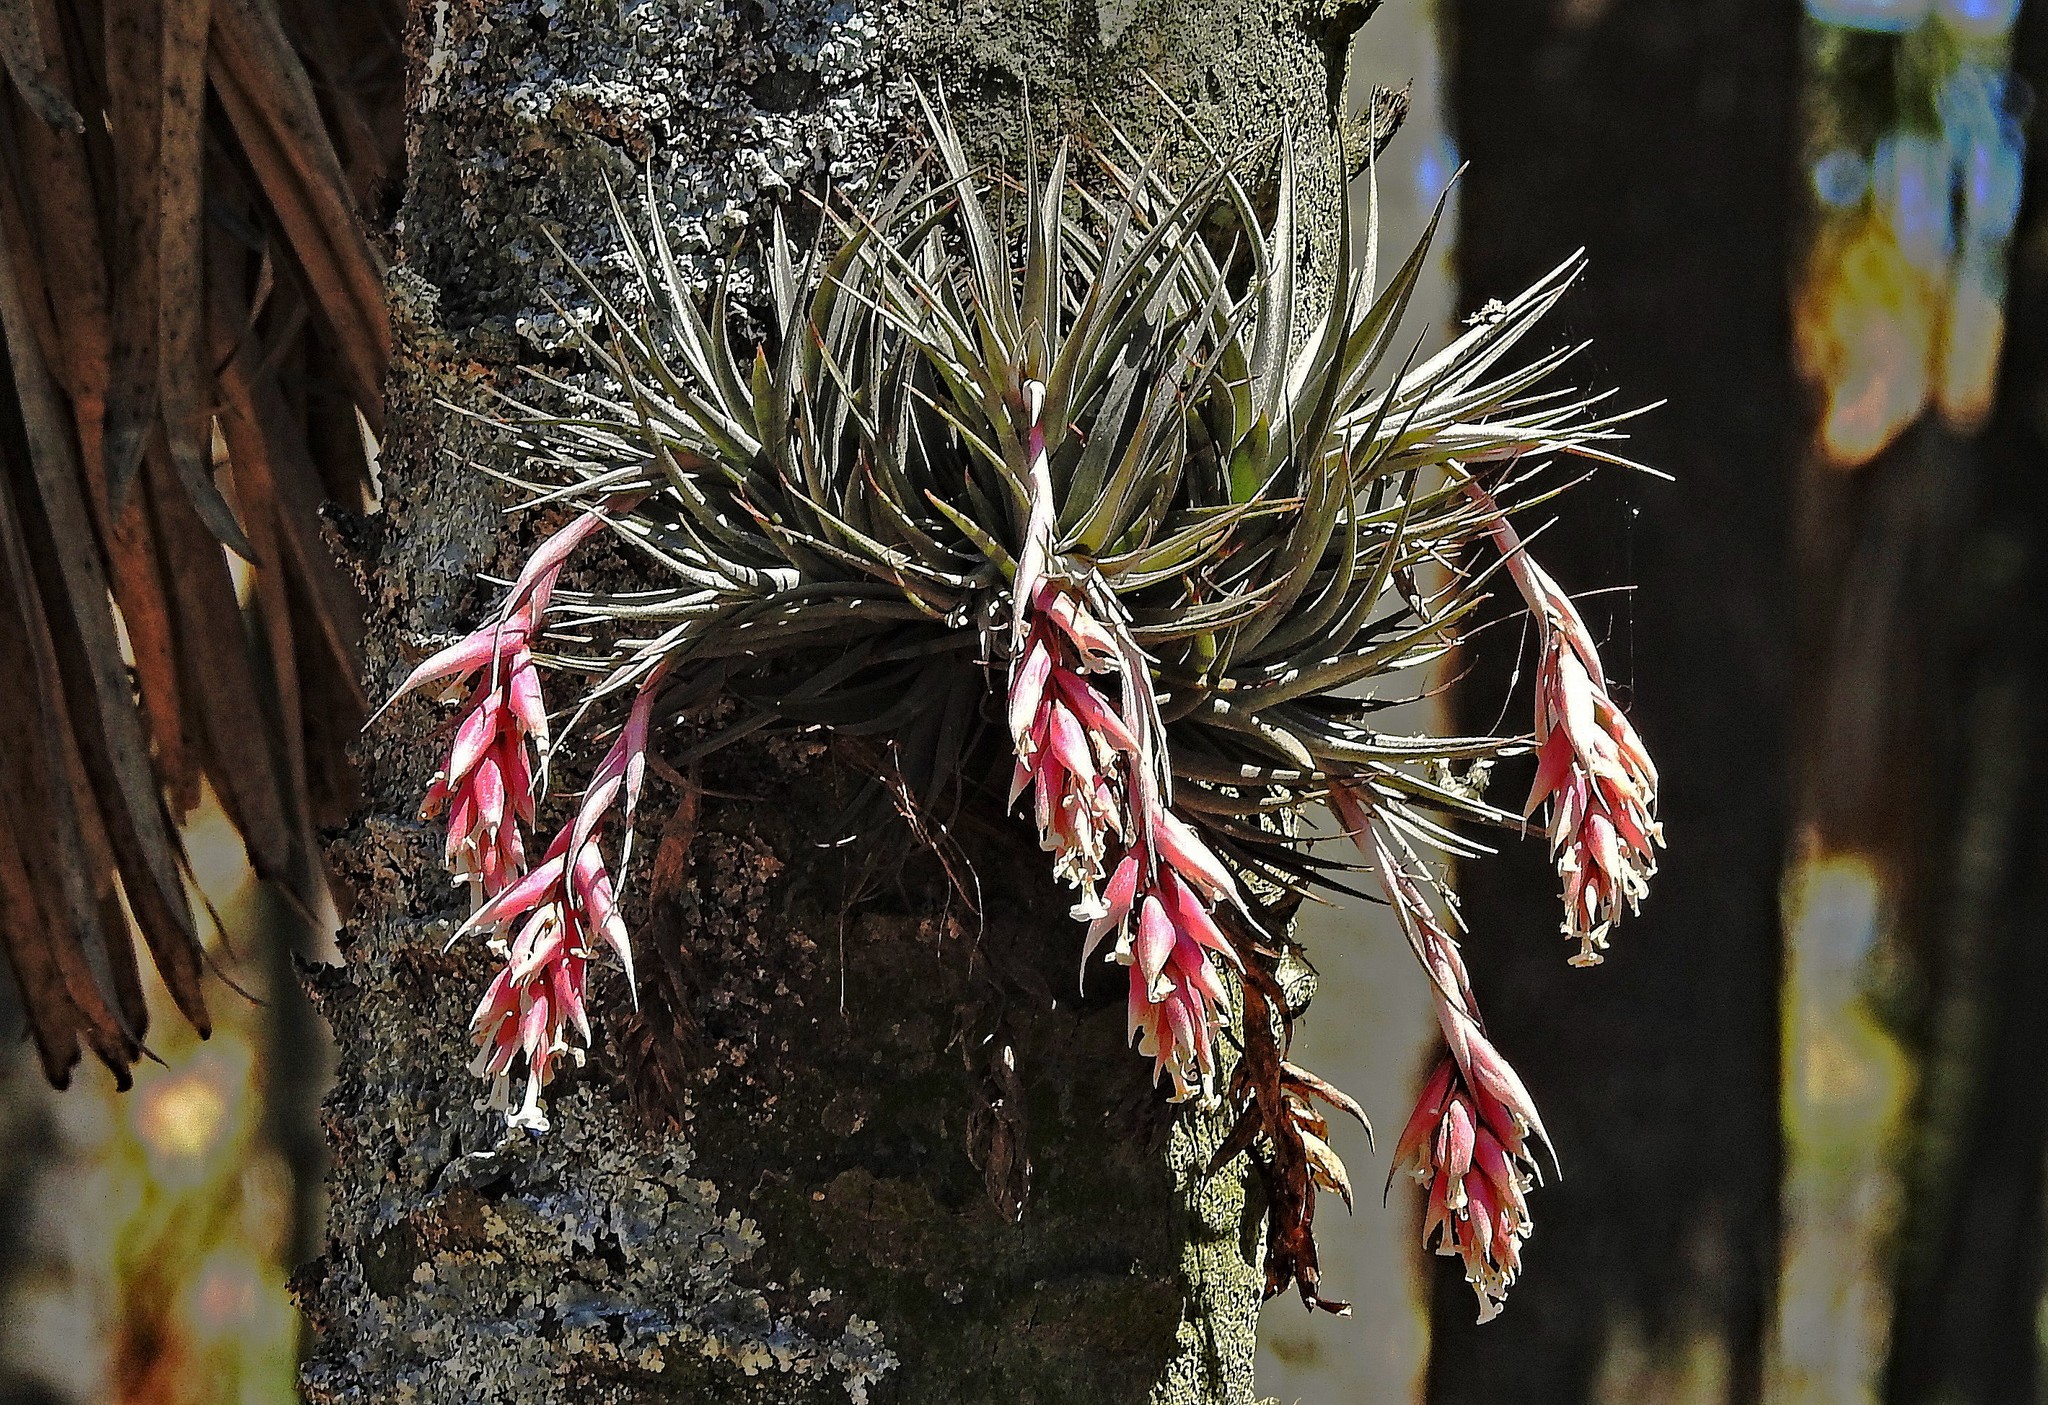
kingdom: Plantae
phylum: Tracheophyta
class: Liliopsida
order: Poales
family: Bromeliaceae
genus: Tillandsia
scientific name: Tillandsia recurvifolia
